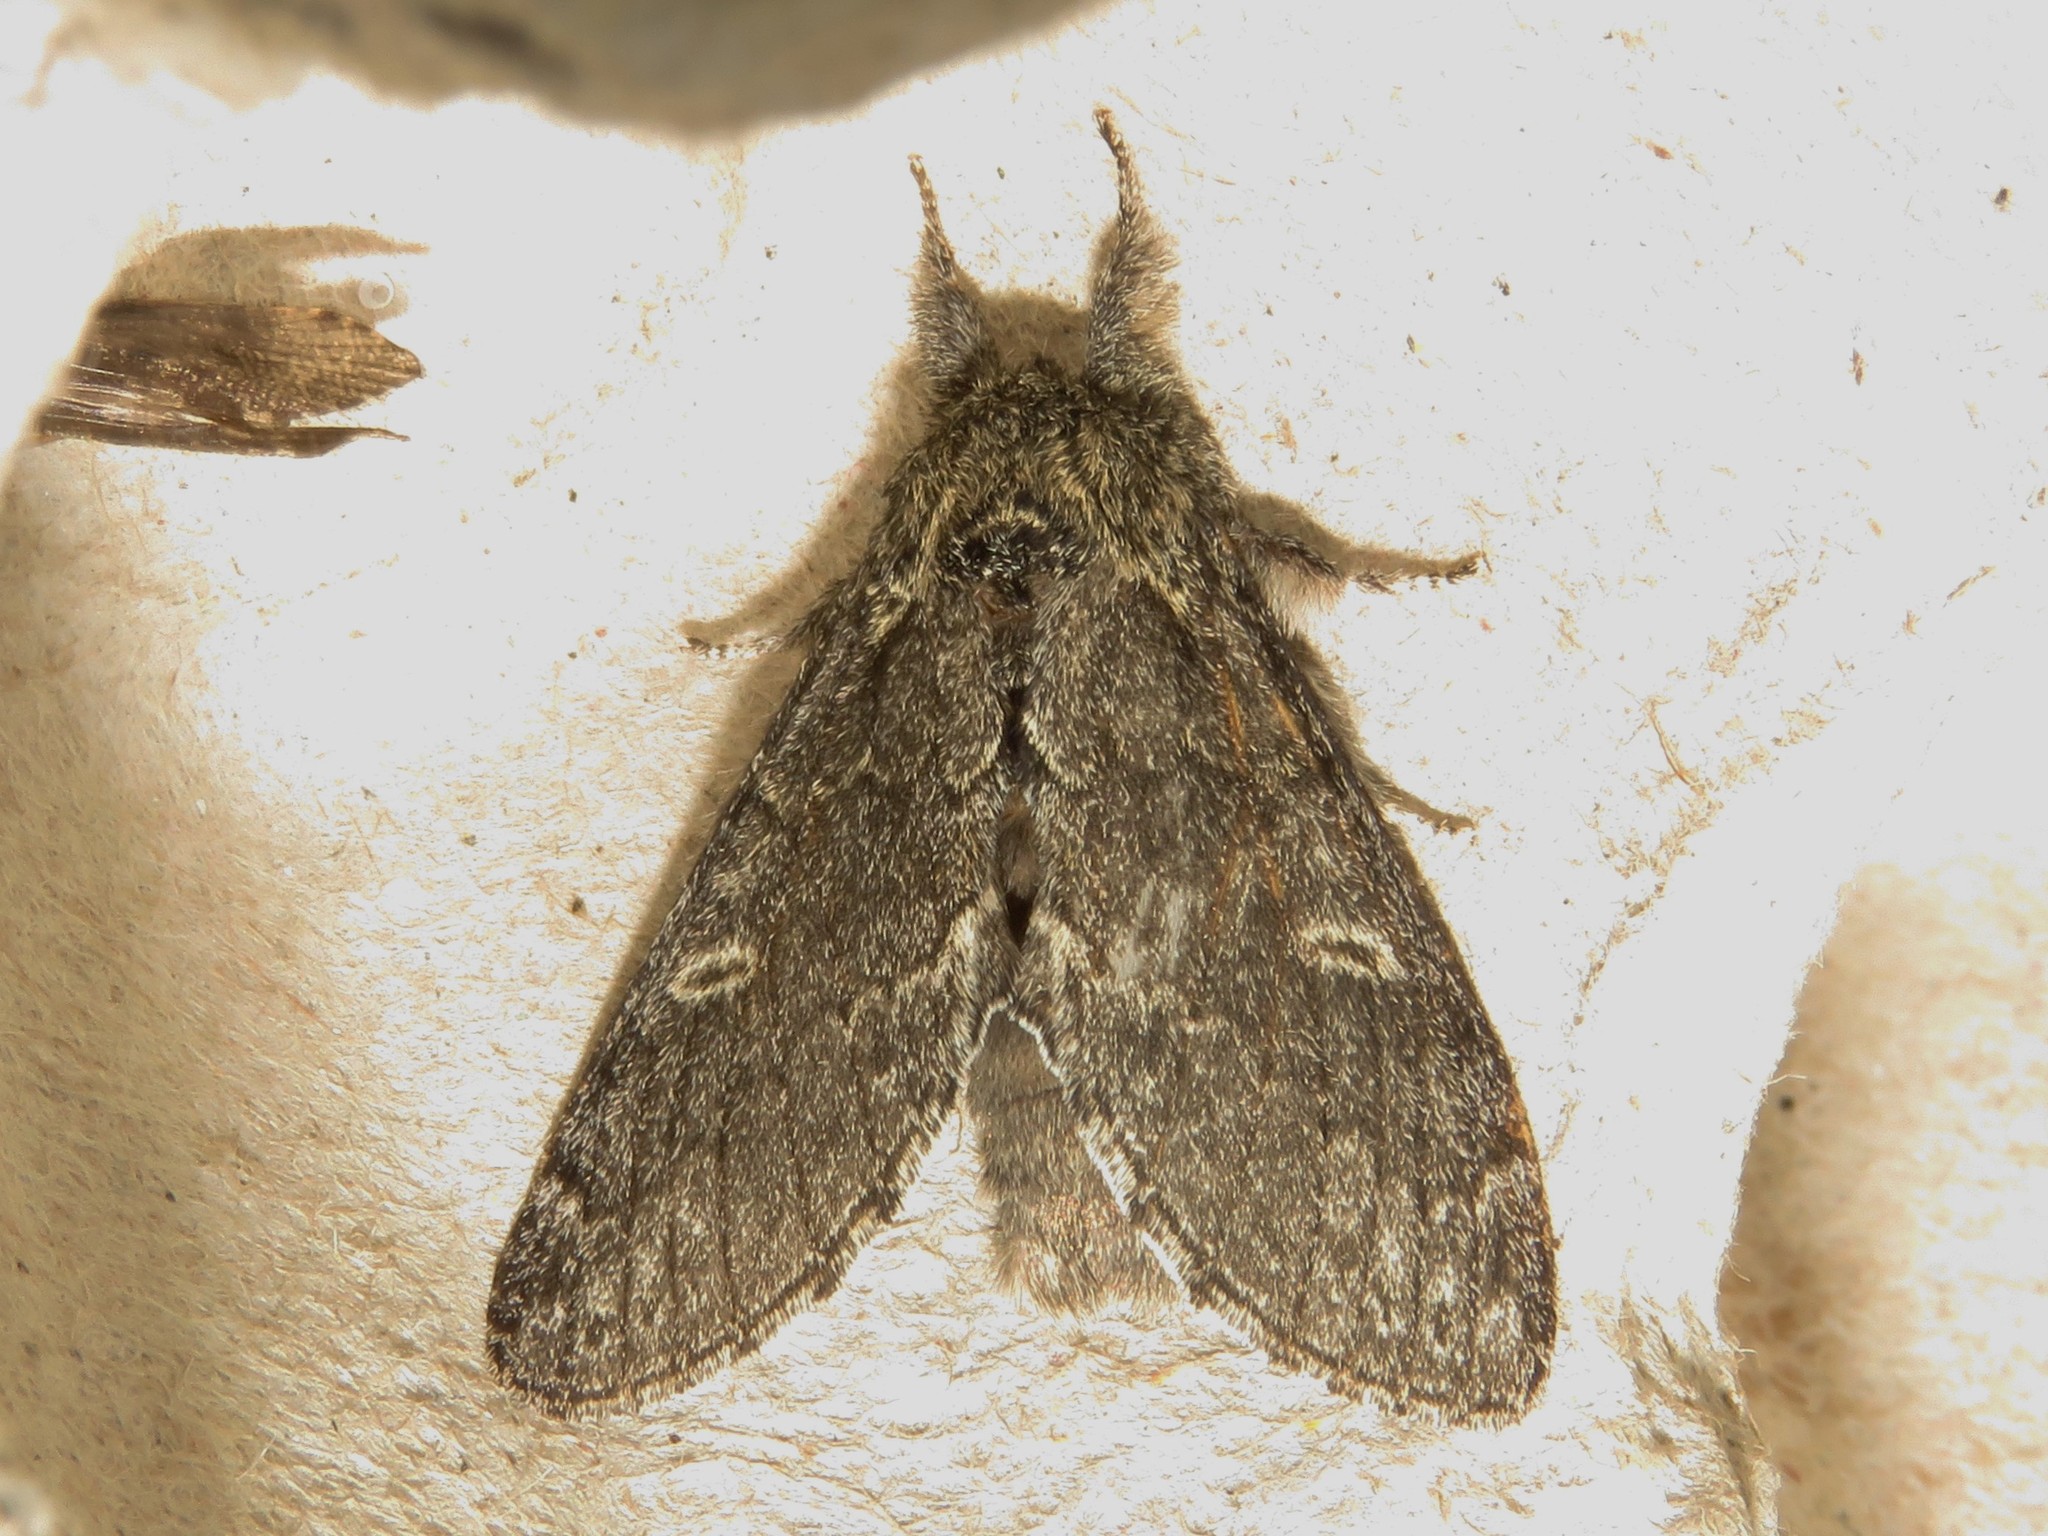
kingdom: Animalia
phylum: Arthropoda
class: Insecta
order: Lepidoptera
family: Notodontidae
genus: Notodonta
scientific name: Notodonta torva
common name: Large dark prominent
